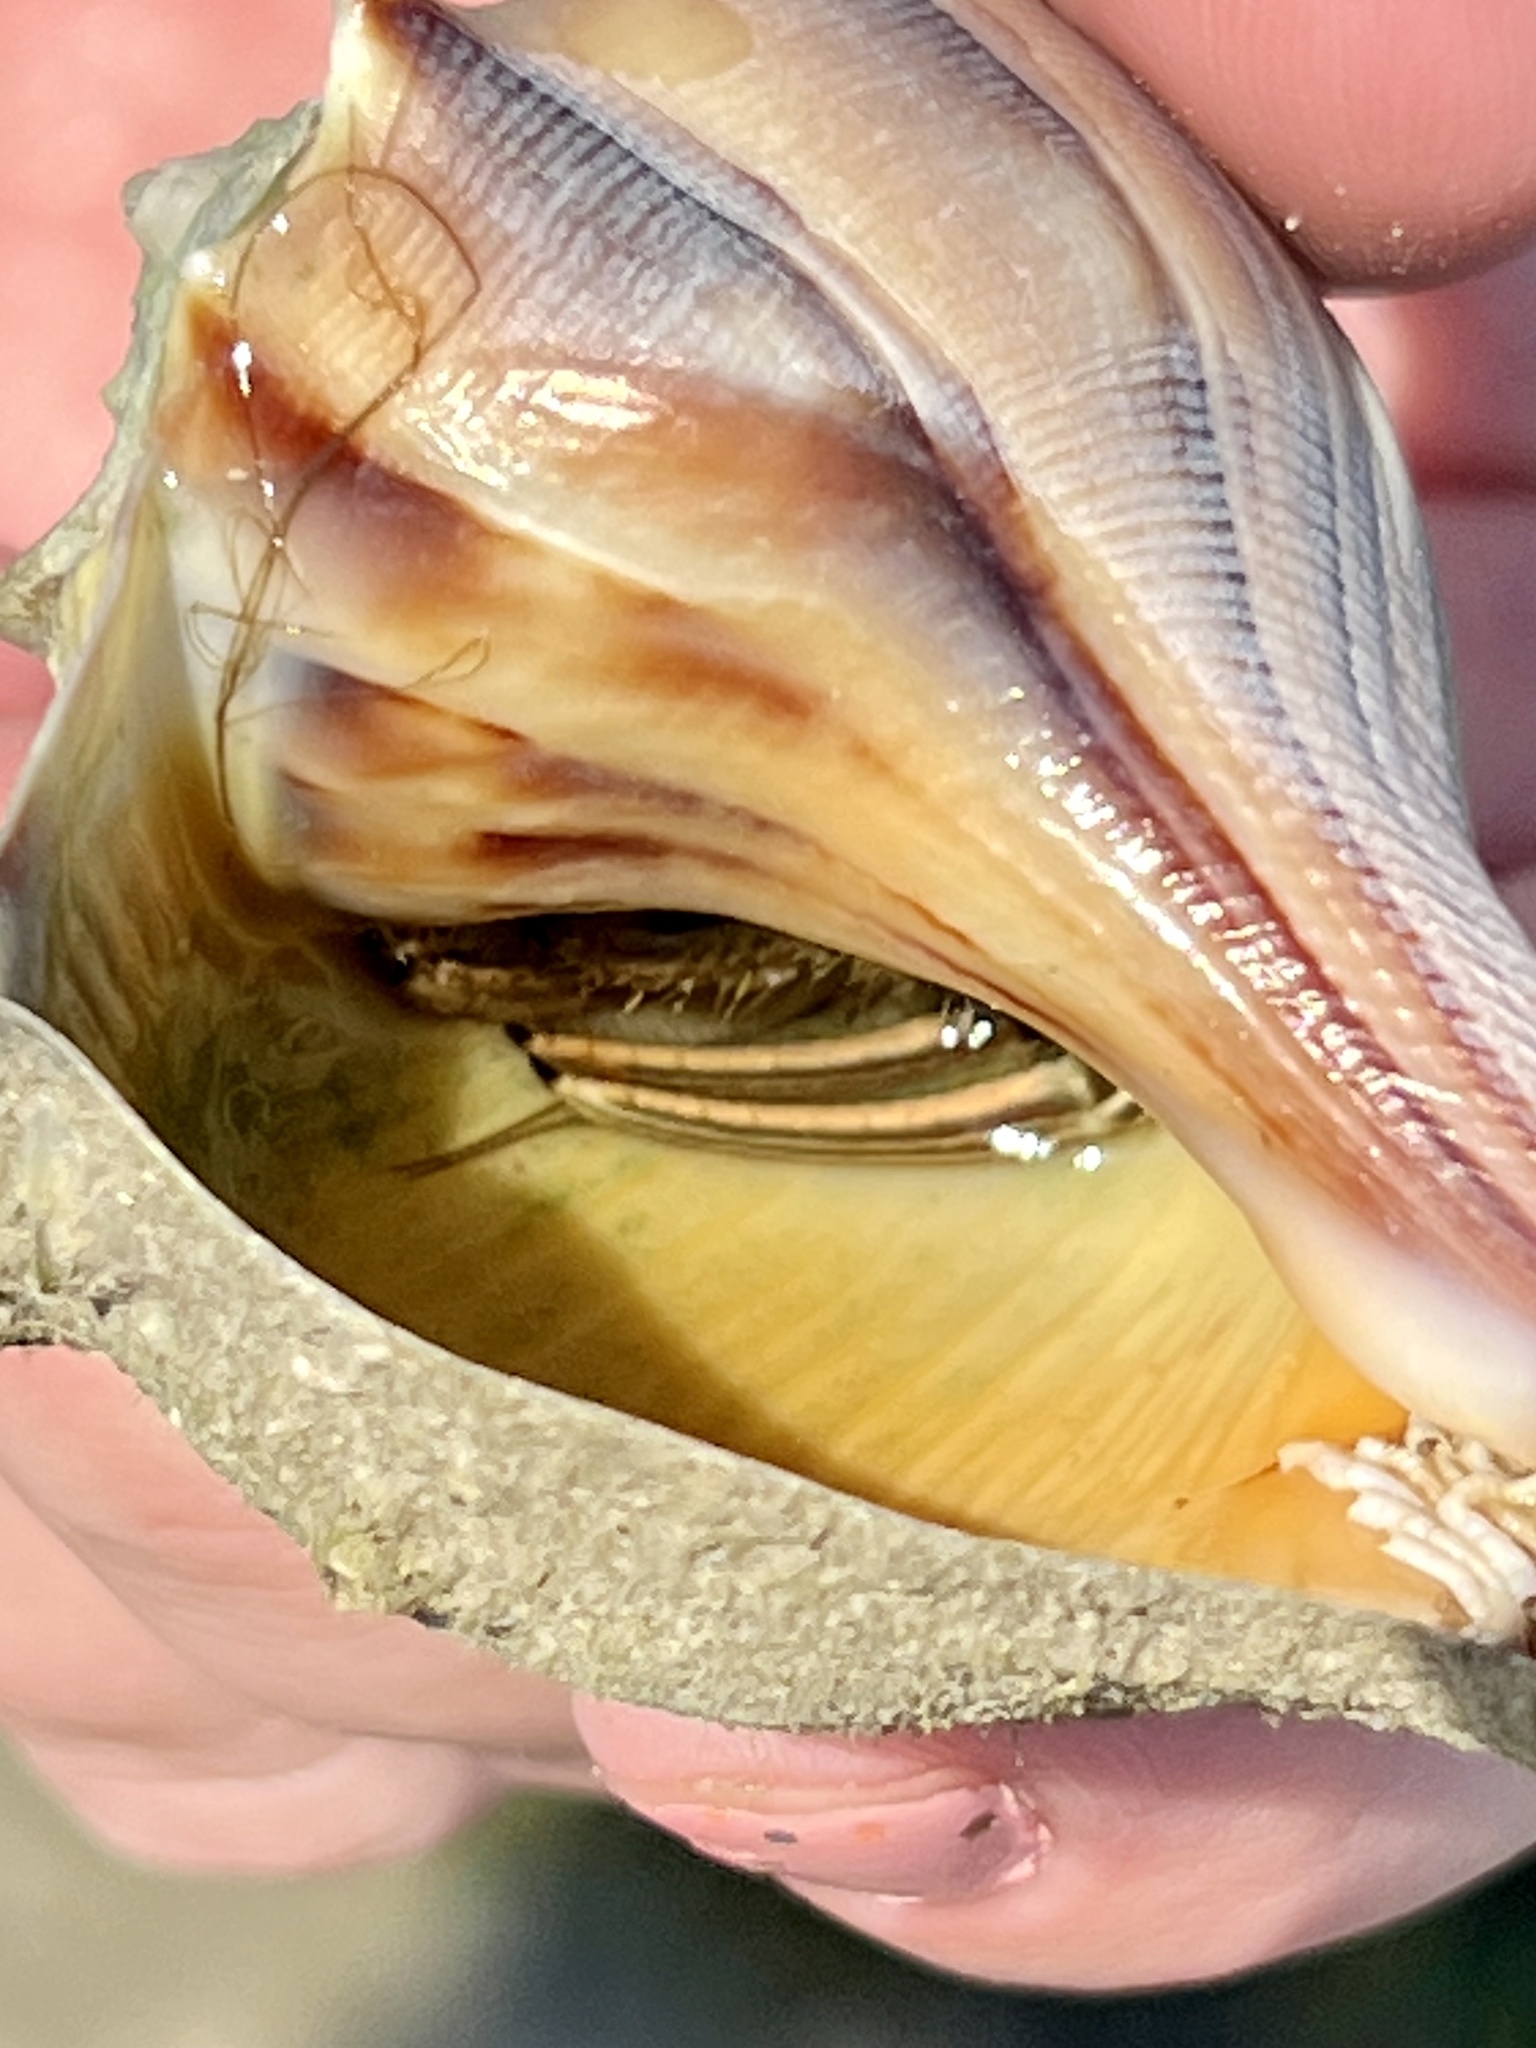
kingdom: Animalia
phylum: Arthropoda
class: Malacostraca
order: Decapoda
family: Diogenidae
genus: Clibanarius
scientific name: Clibanarius vittatus
